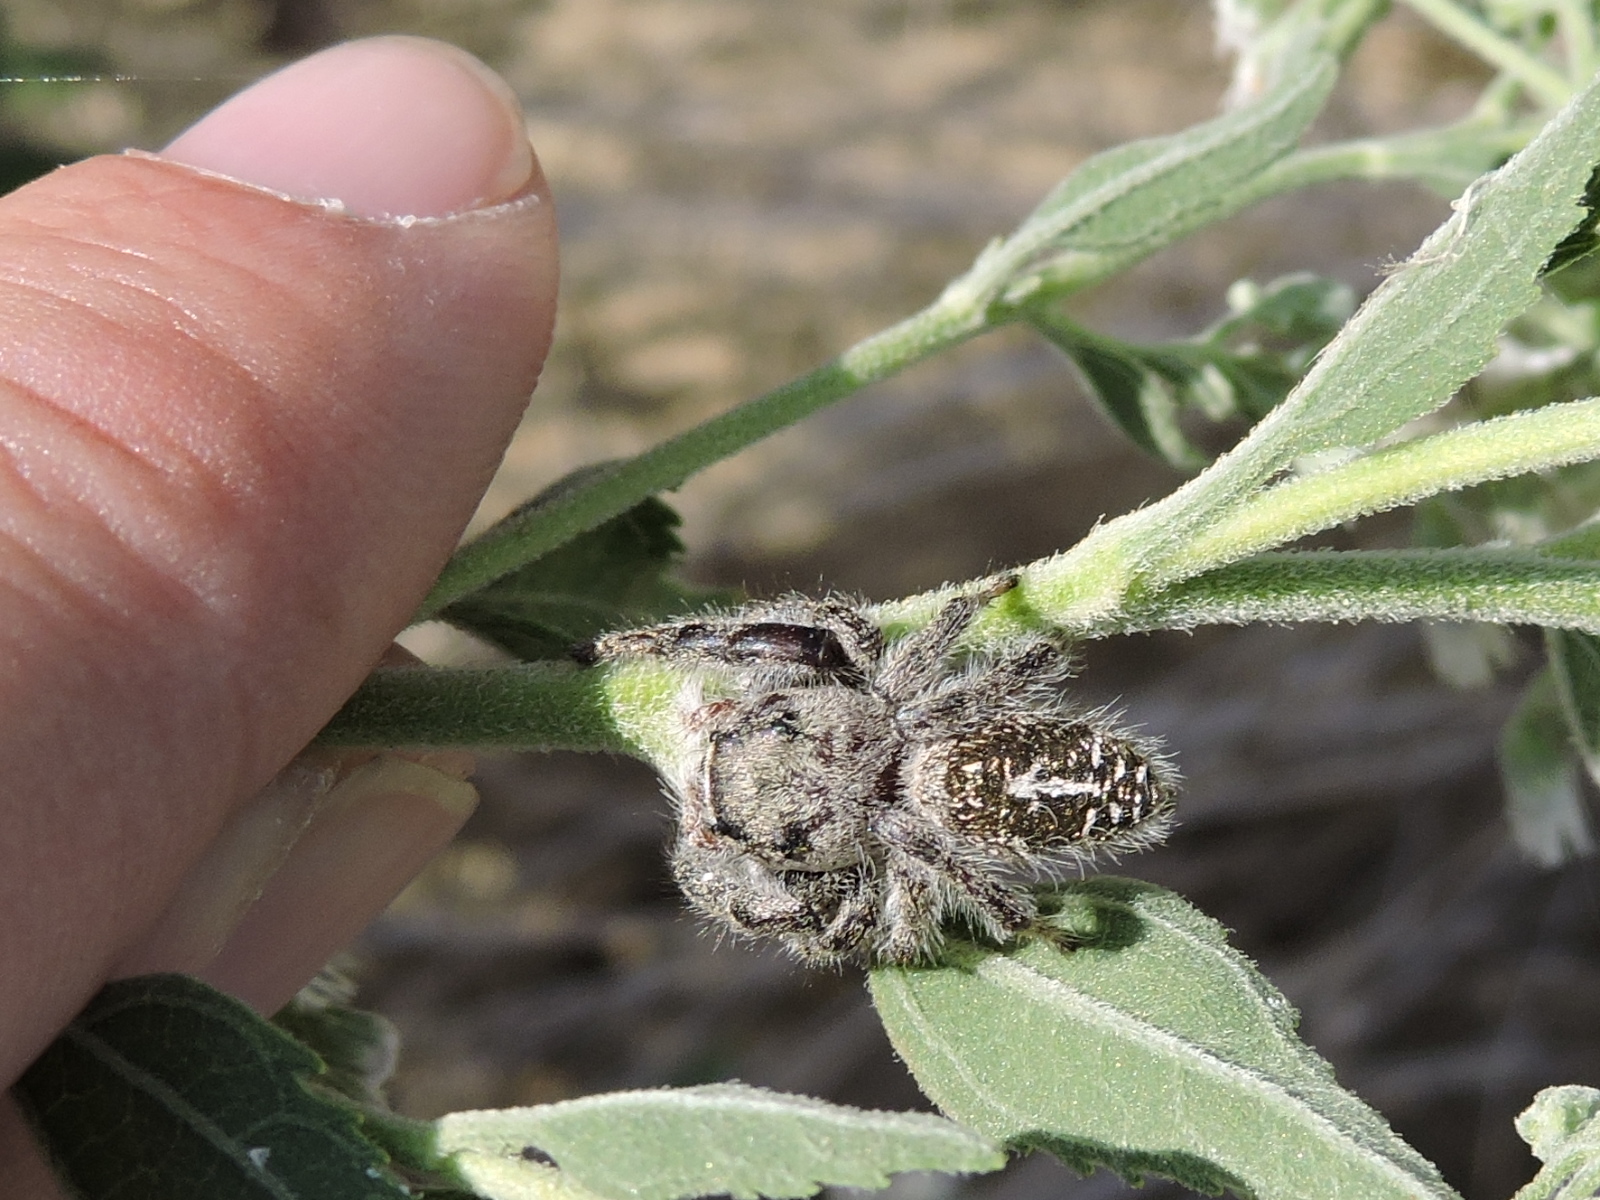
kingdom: Animalia
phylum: Arthropoda
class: Arachnida
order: Araneae
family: Salticidae
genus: Phidippus
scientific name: Phidippus texanus
